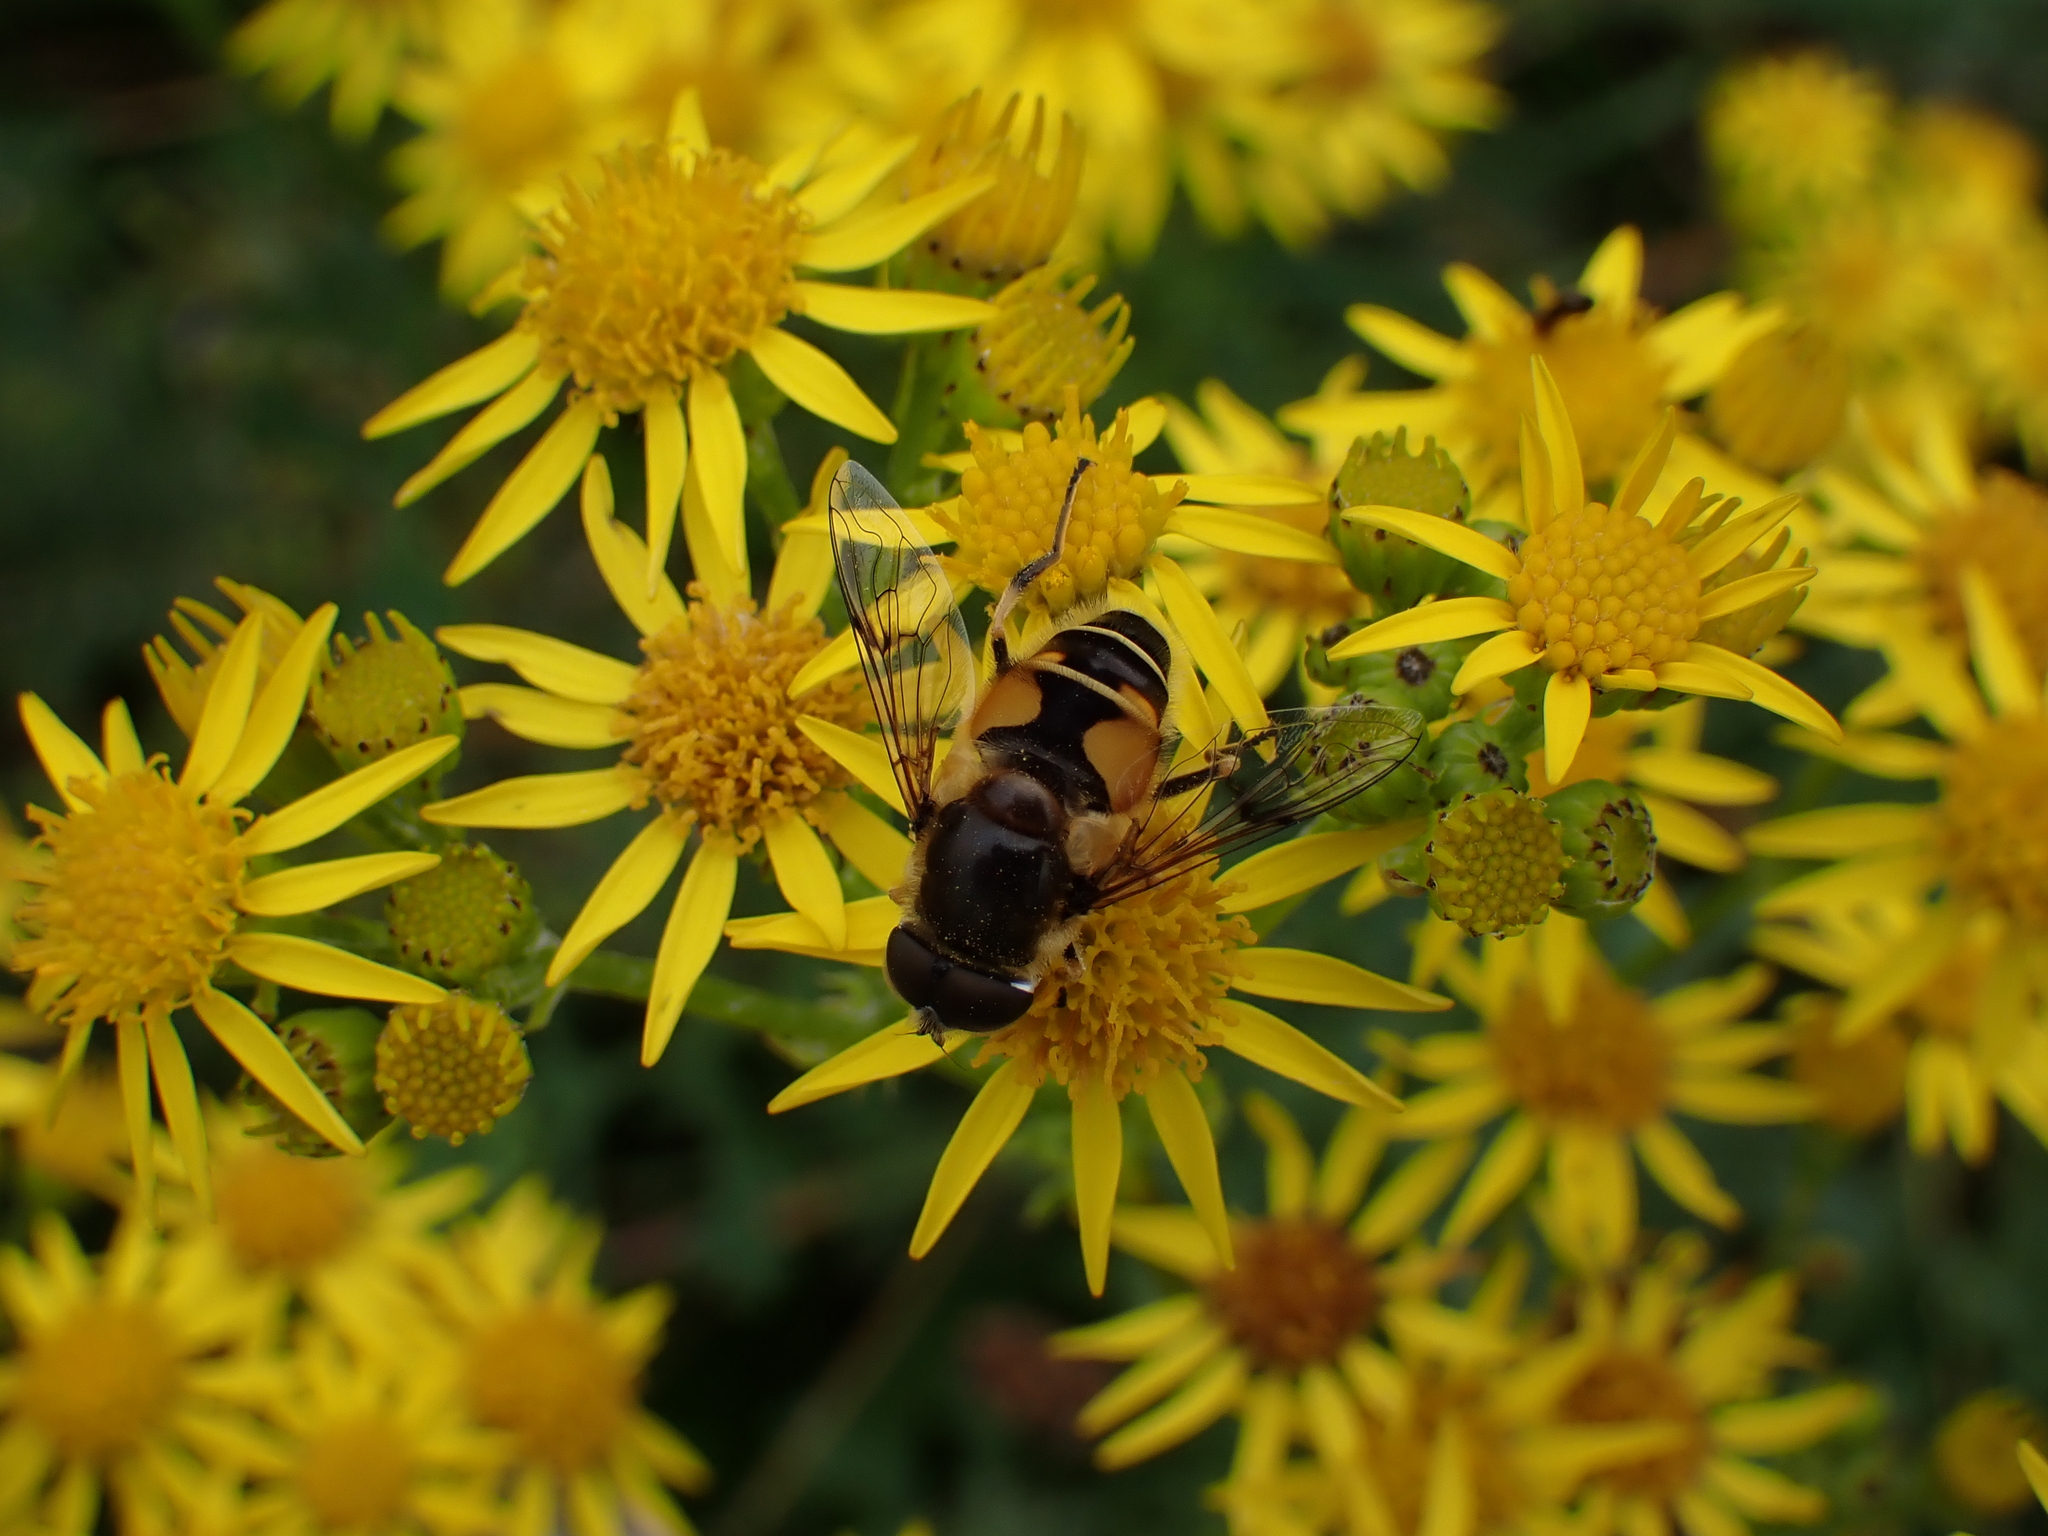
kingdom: Animalia
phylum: Arthropoda
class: Insecta
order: Diptera
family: Syrphidae
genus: Cheilosia
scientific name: Cheilosia morio
